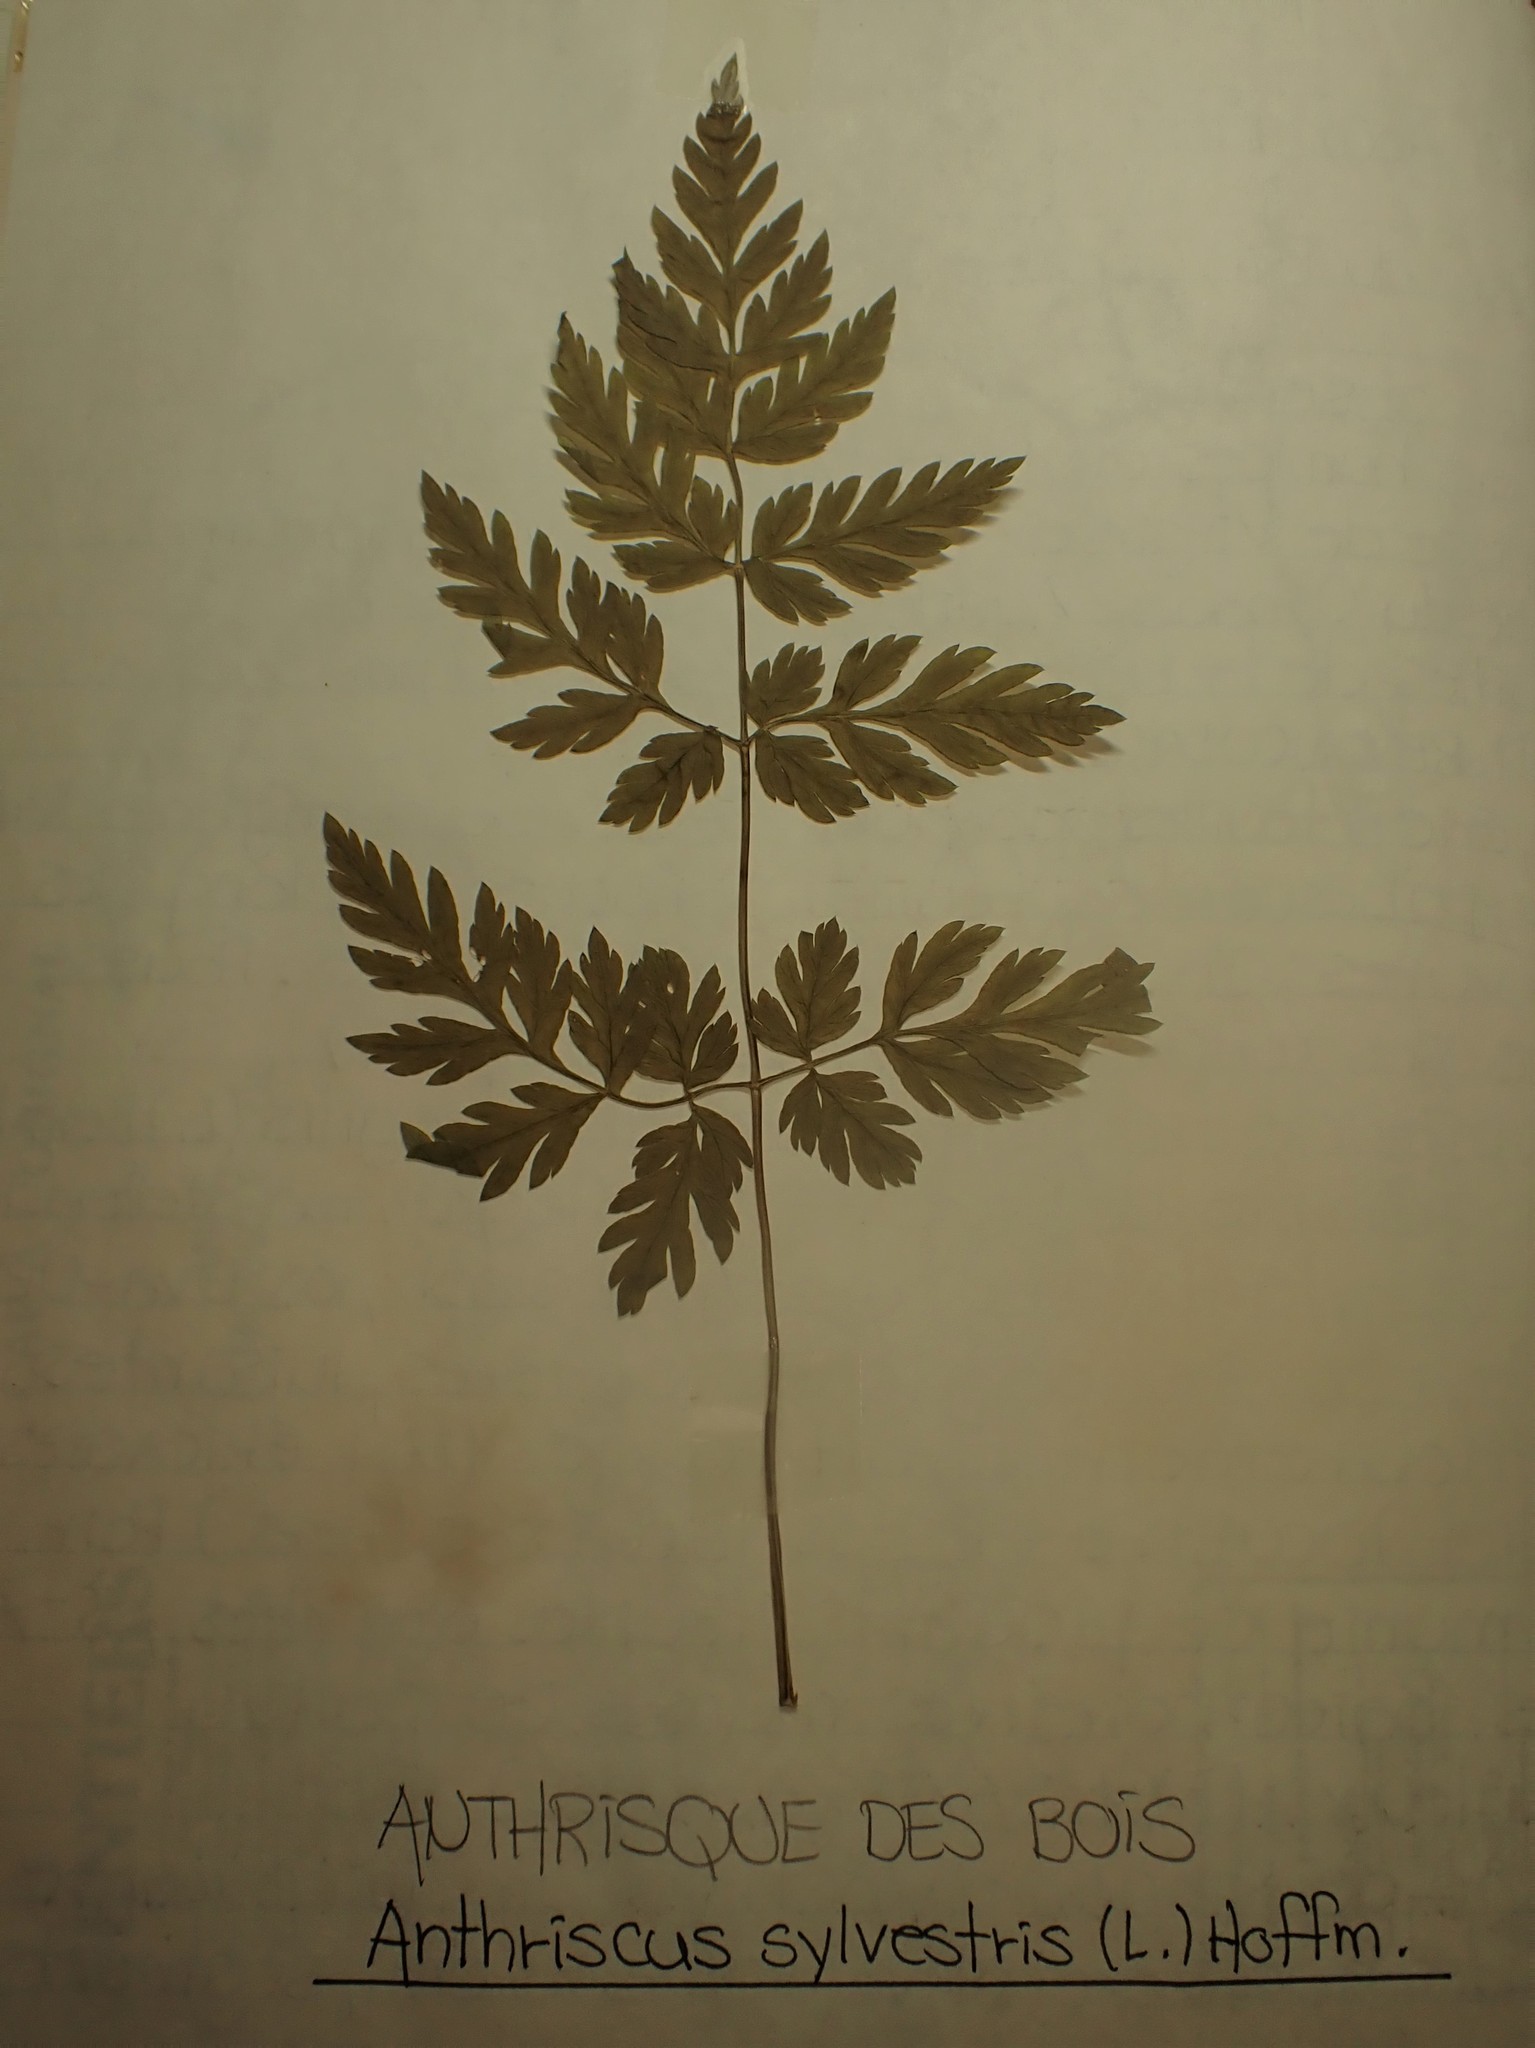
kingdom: Plantae
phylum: Tracheophyta
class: Magnoliopsida
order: Apiales
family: Apiaceae
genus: Anthriscus
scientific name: Anthriscus sylvestris
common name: Cow parsley
